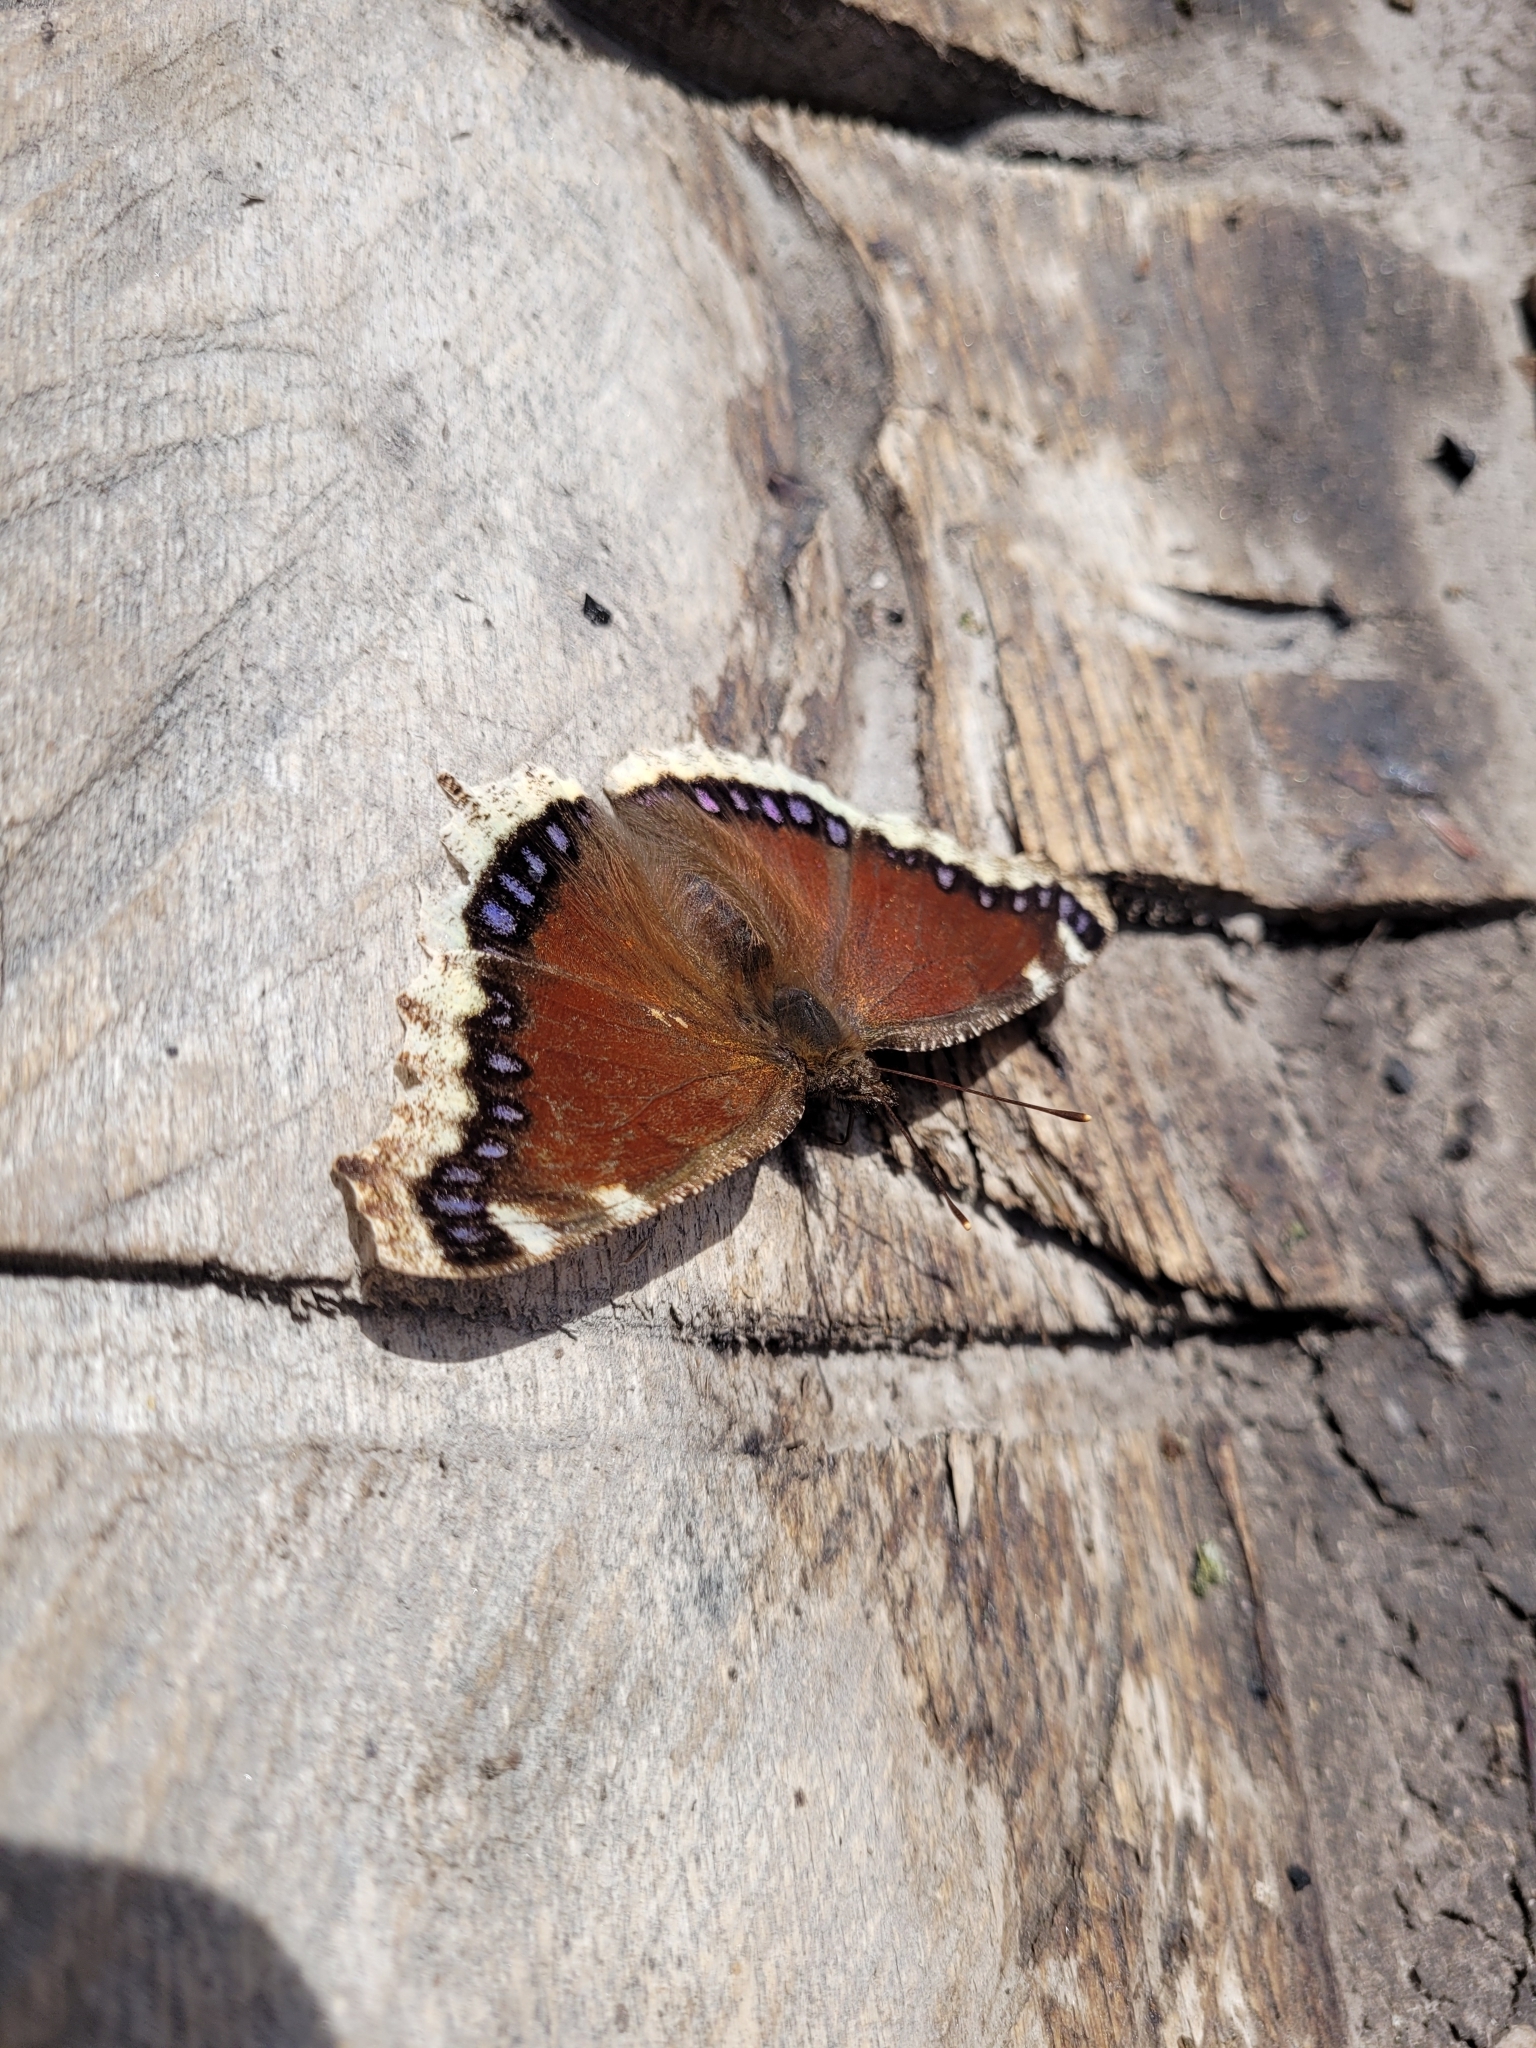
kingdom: Animalia
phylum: Arthropoda
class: Insecta
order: Lepidoptera
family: Nymphalidae
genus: Nymphalis
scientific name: Nymphalis antiopa
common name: Camberwell beauty
